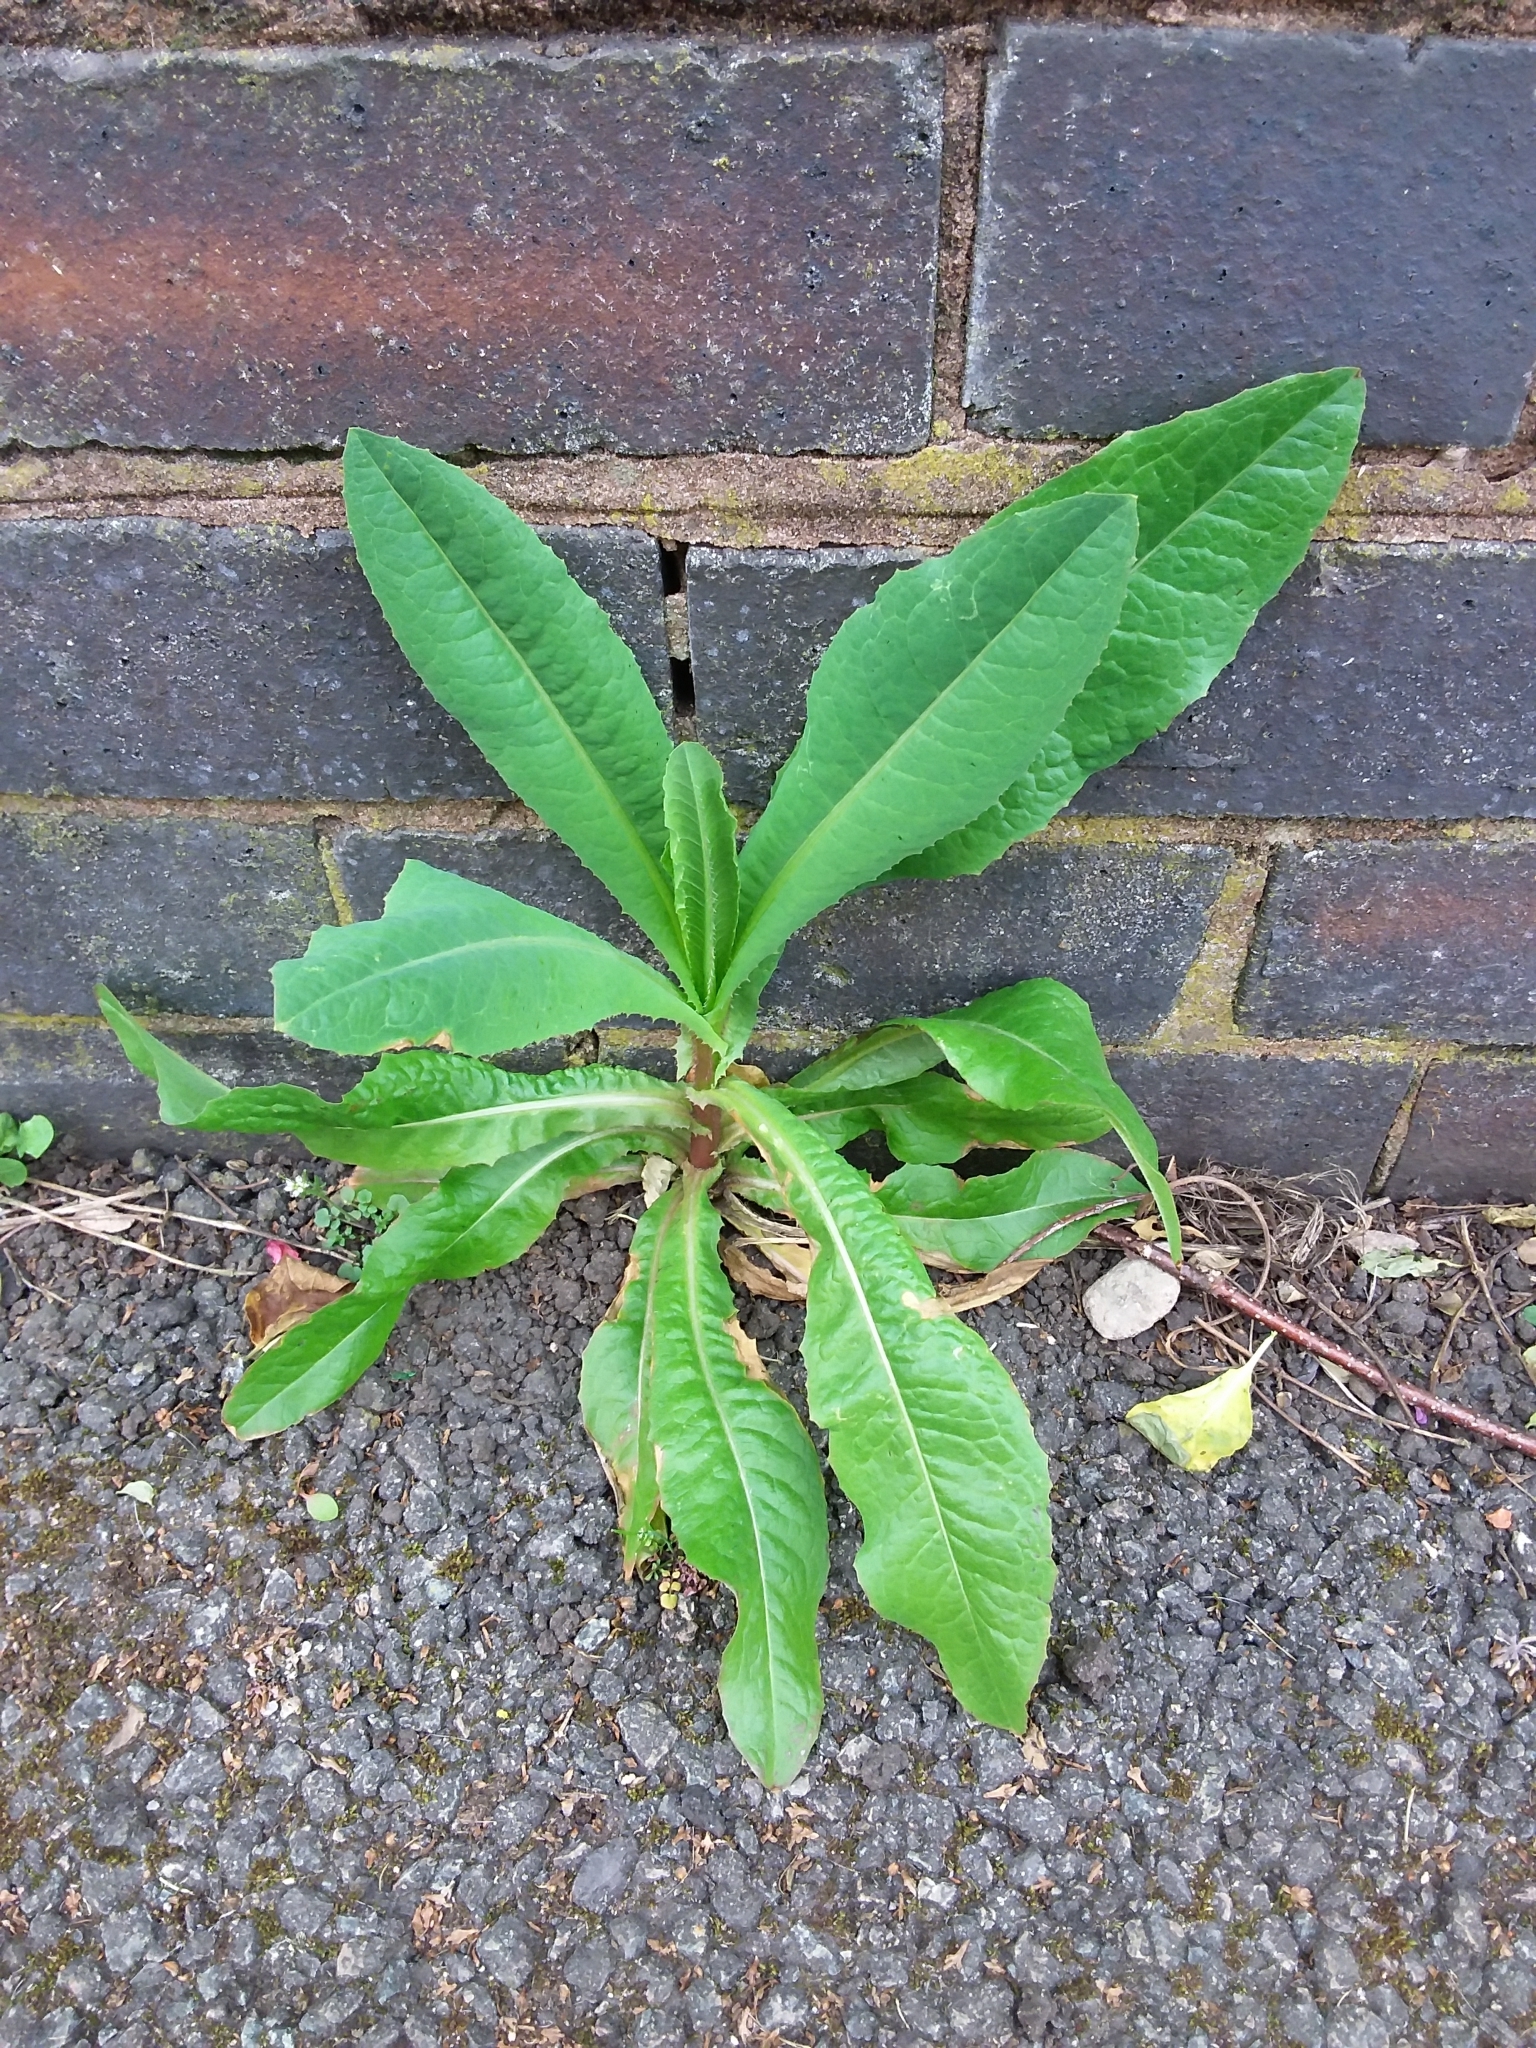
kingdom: Plantae
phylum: Tracheophyta
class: Magnoliopsida
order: Asterales
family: Asteraceae
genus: Lactuca
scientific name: Lactuca serriola
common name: Prickly lettuce
